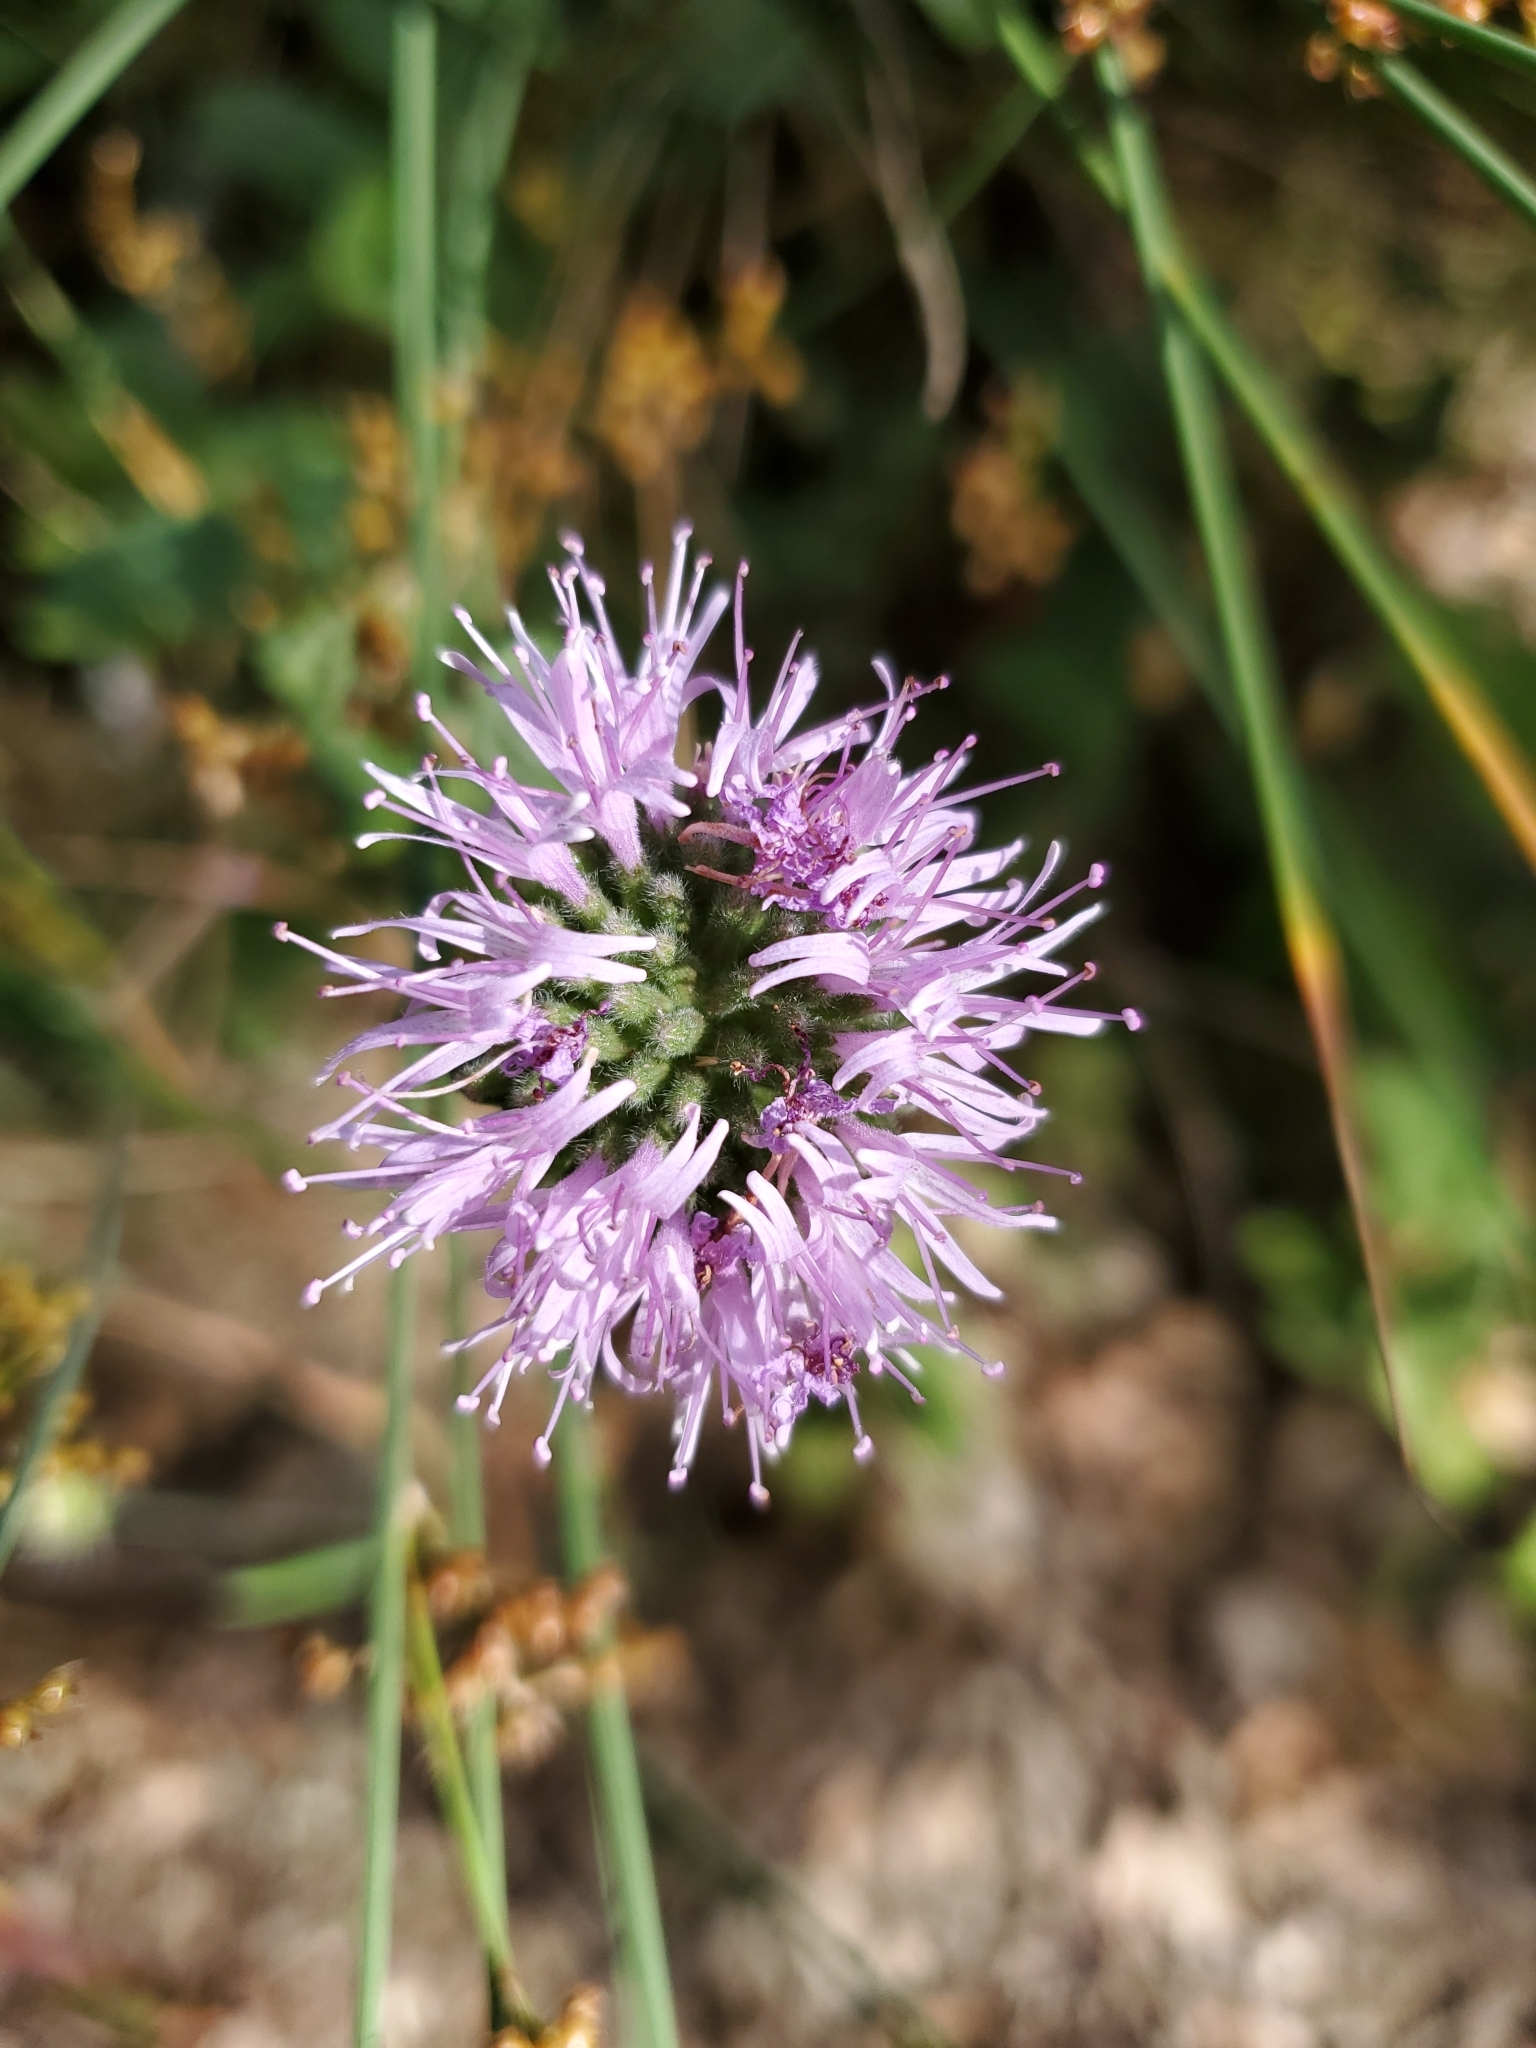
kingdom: Plantae
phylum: Tracheophyta
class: Magnoliopsida
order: Lamiales
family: Lamiaceae
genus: Monardella
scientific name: Monardella odoratissima
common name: Pacific monardella
